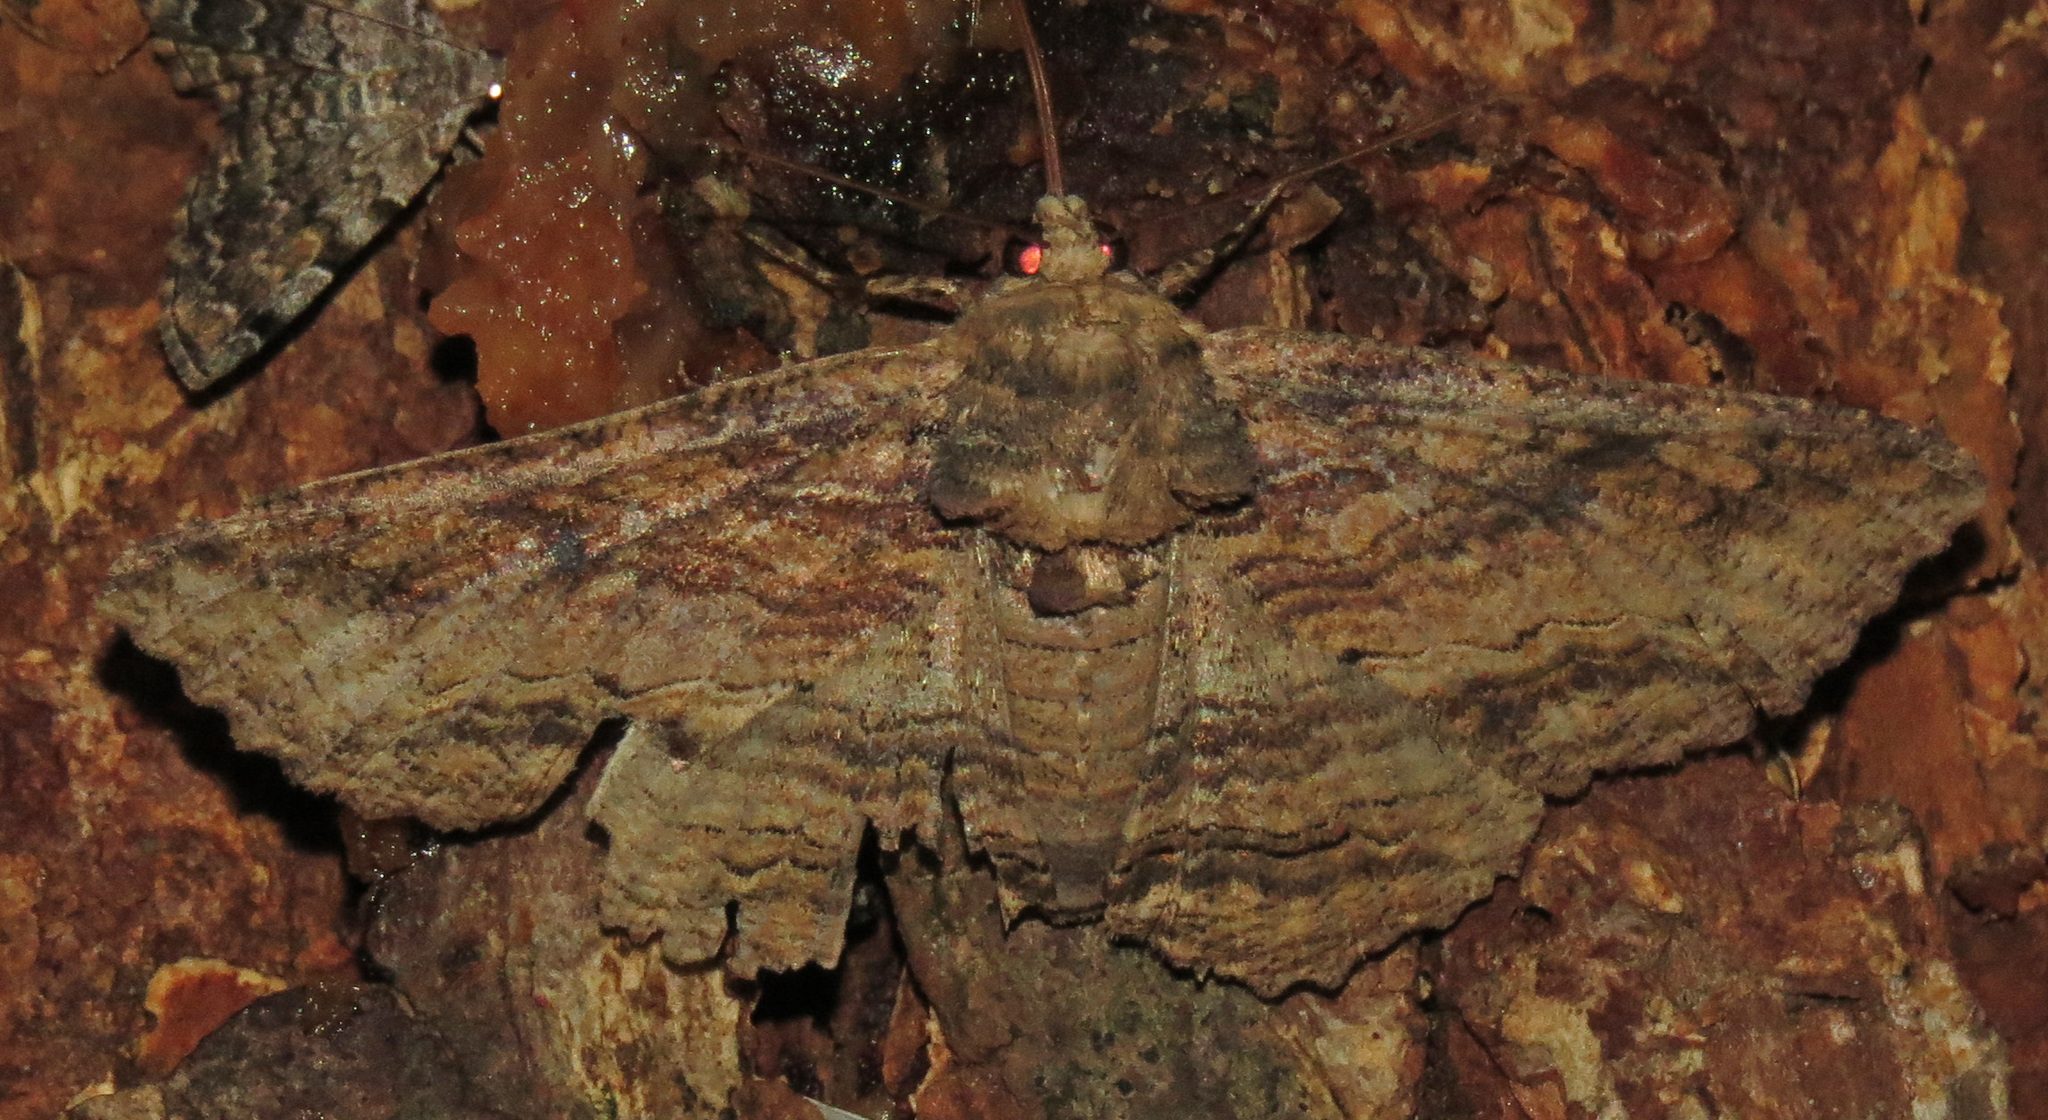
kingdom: Animalia
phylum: Arthropoda
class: Insecta
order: Lepidoptera
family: Erebidae
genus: Zale
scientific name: Zale lunata
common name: Lunate zale moth
